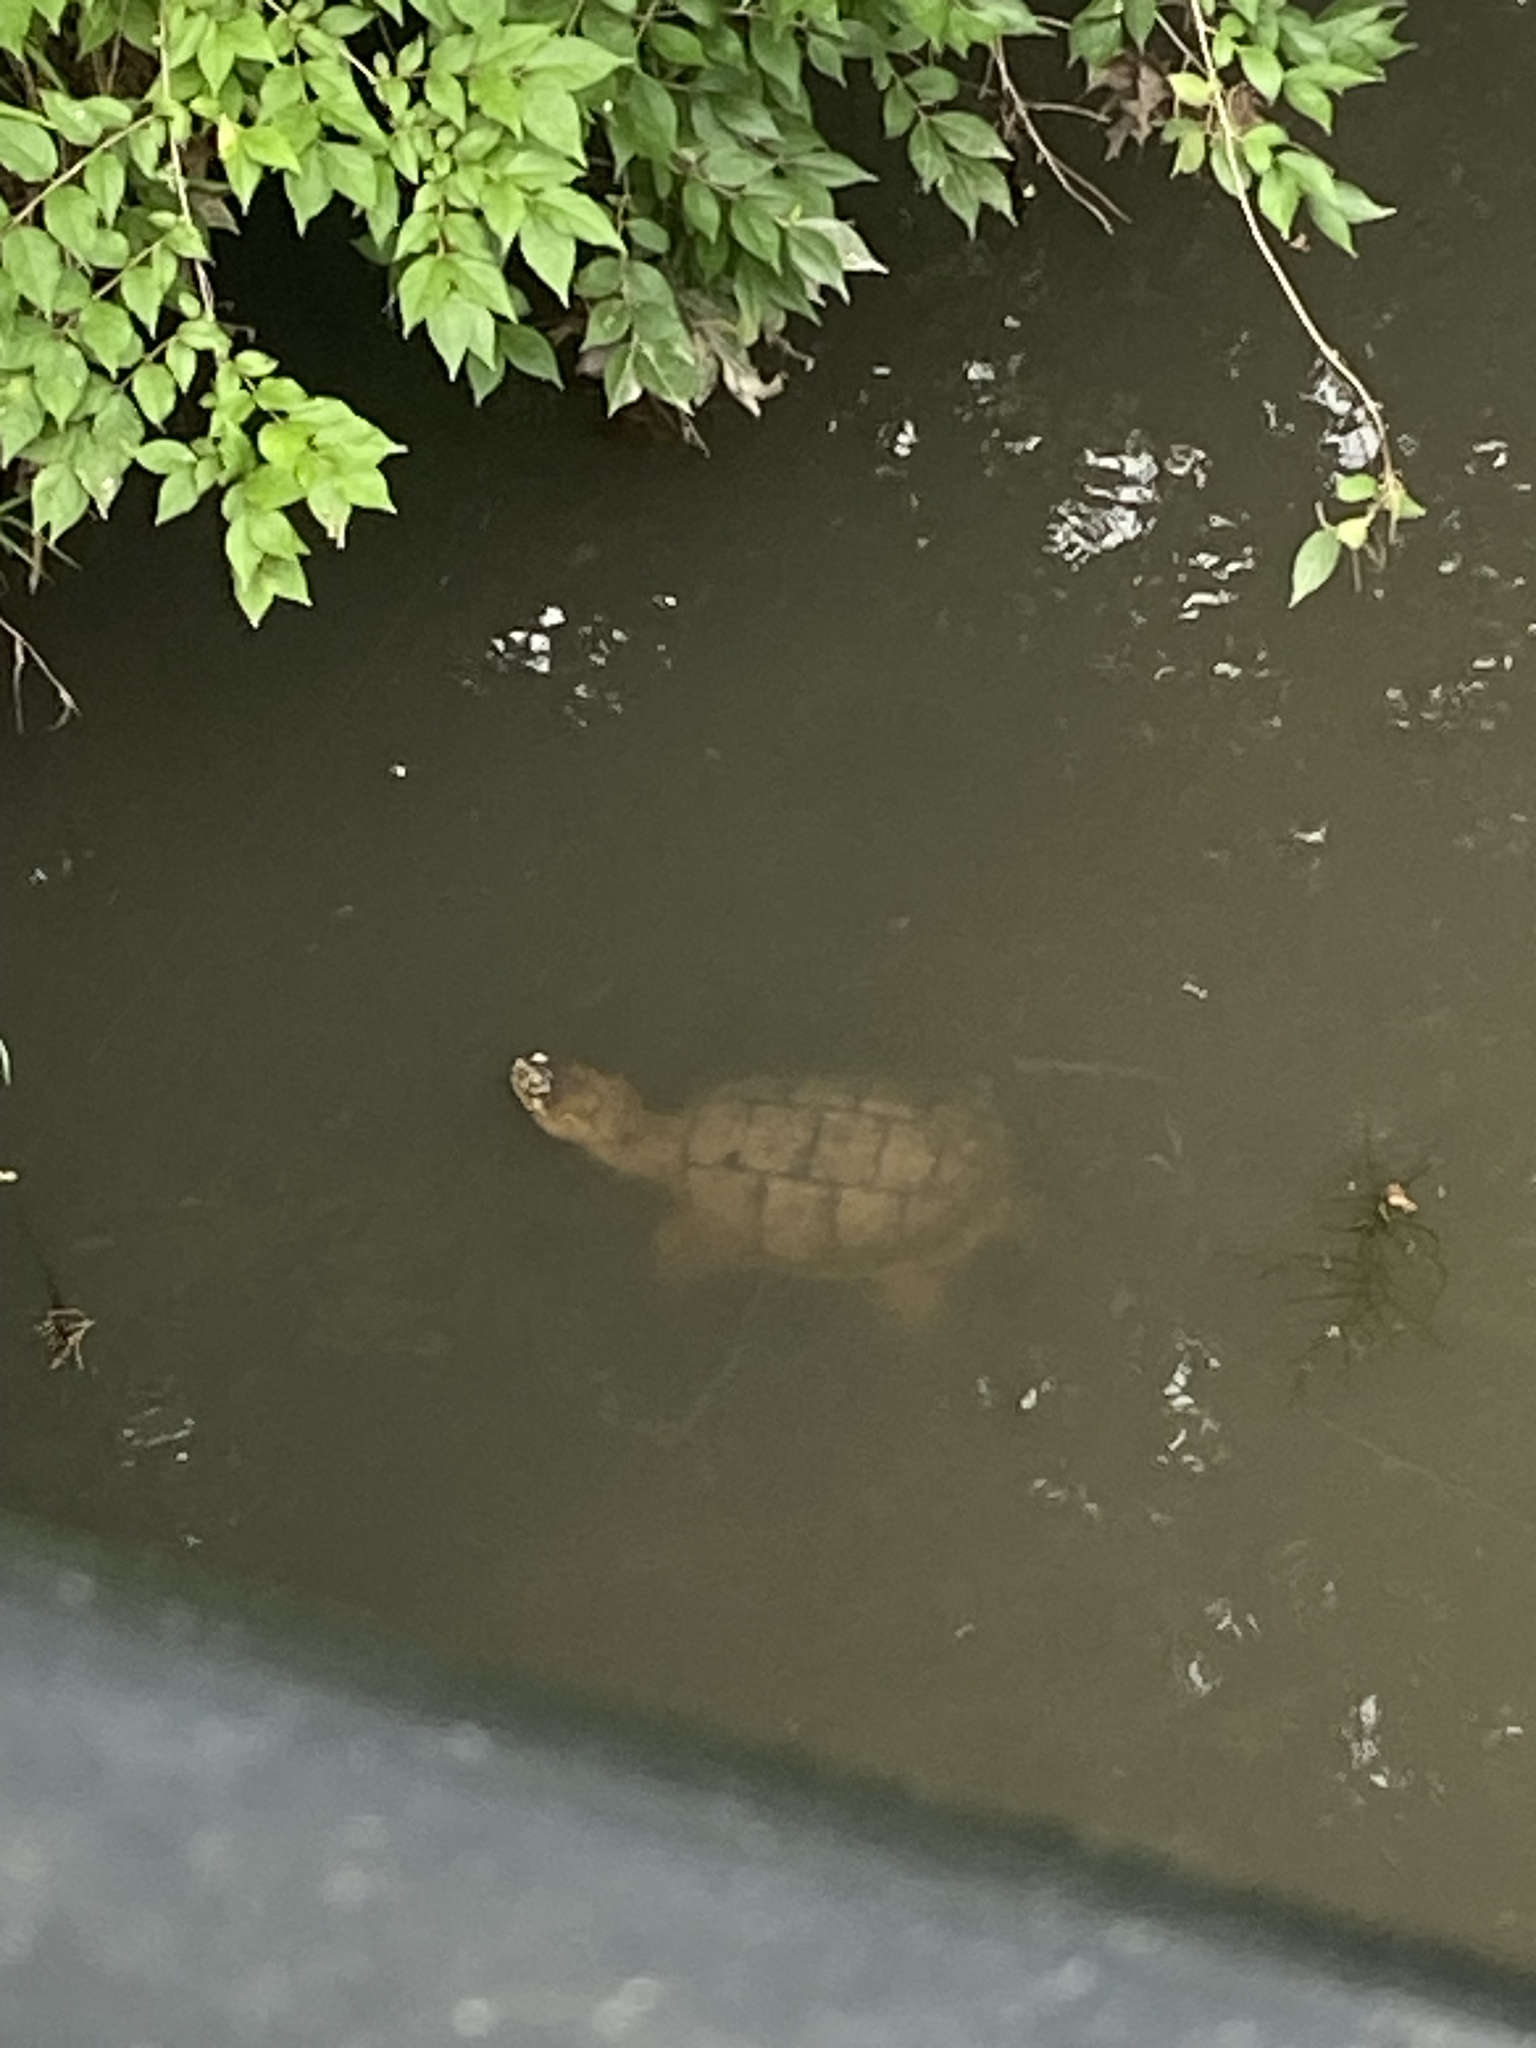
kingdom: Animalia
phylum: Chordata
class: Testudines
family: Chelydridae
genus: Chelydra
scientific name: Chelydra serpentina
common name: Common snapping turtle
